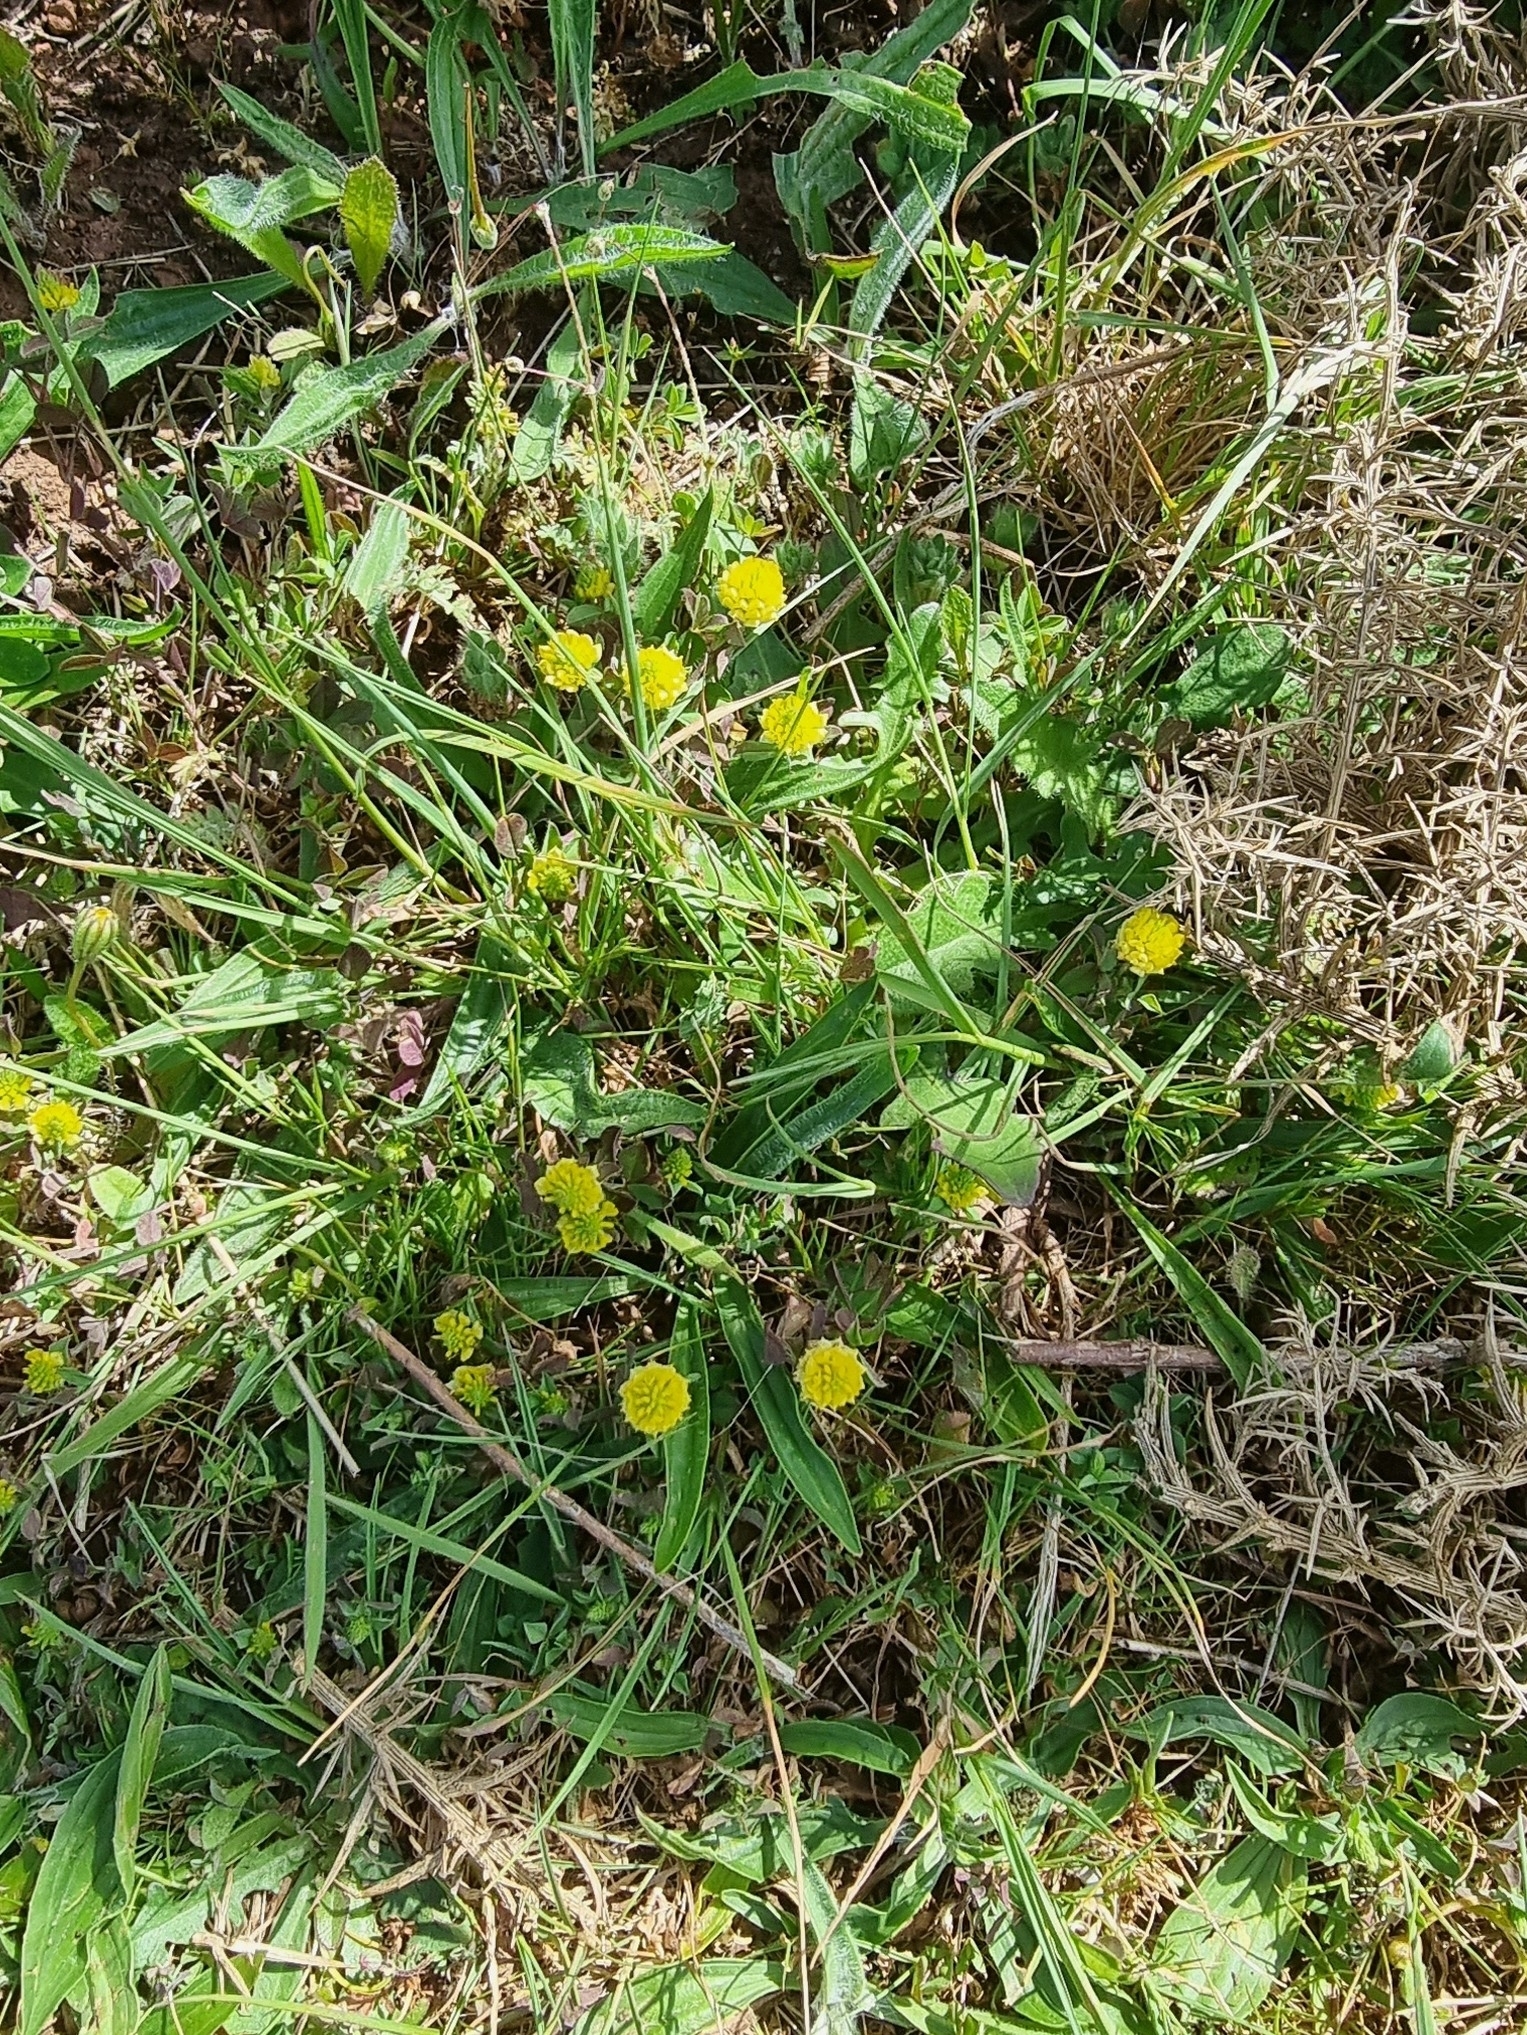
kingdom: Plantae
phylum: Tracheophyta
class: Magnoliopsida
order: Fabales
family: Fabaceae
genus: Trifolium
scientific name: Trifolium campestre
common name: Field clover
